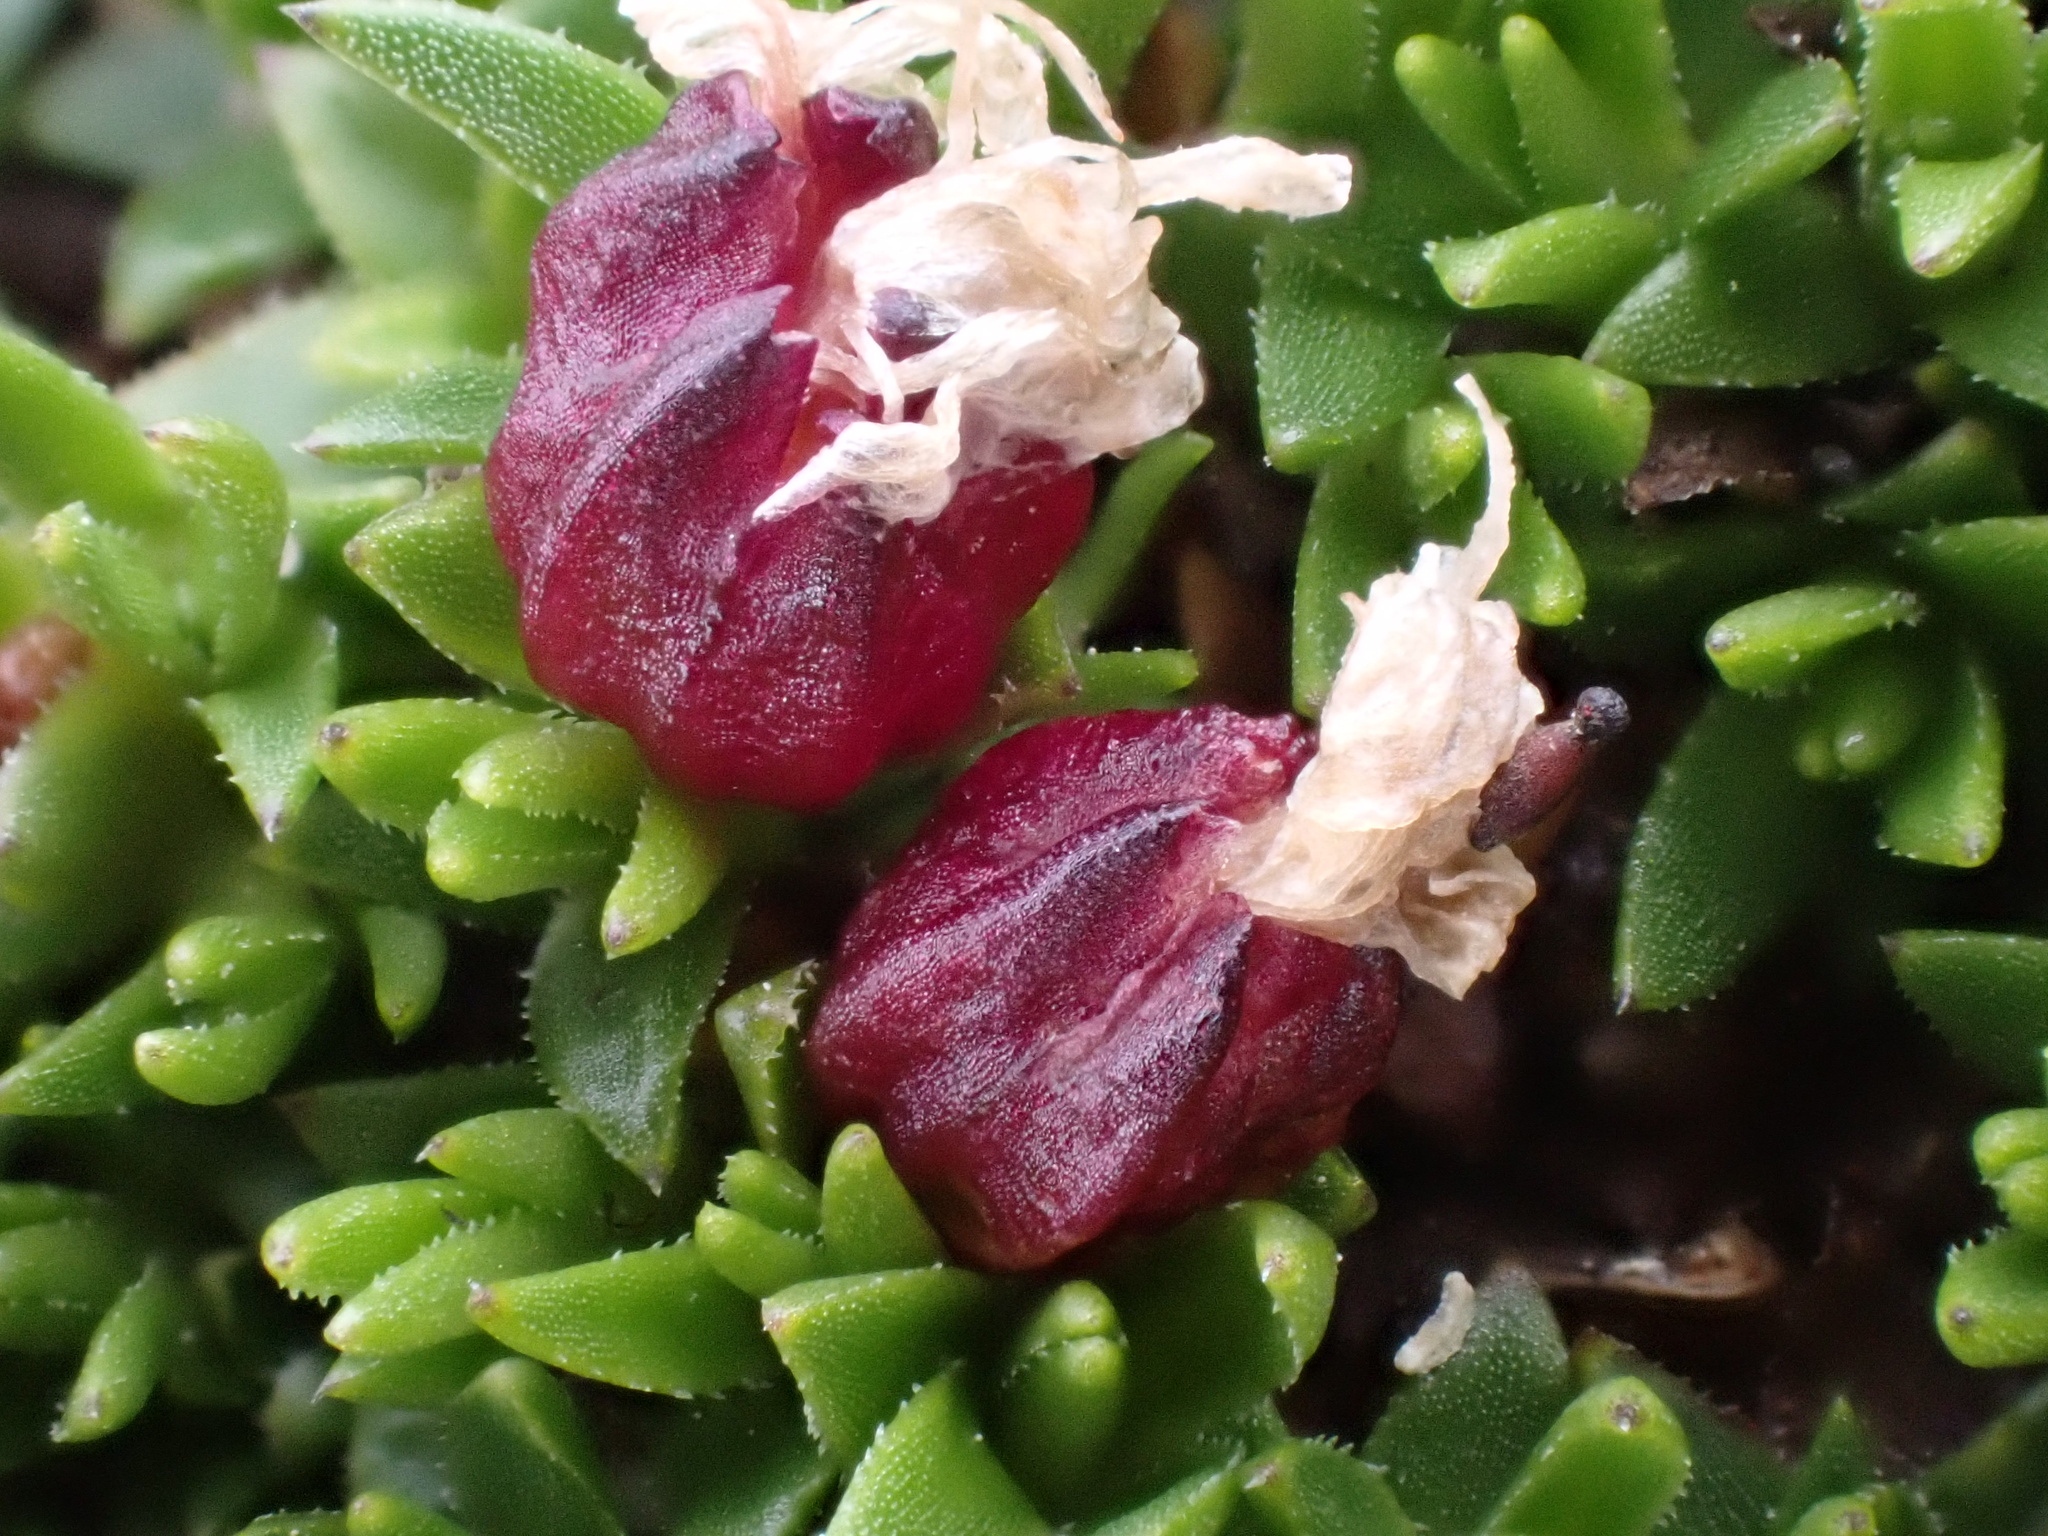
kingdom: Plantae
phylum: Tracheophyta
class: Magnoliopsida
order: Caryophyllales
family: Caryophyllaceae
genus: Silene
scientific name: Silene acaulis
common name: Moss campion
